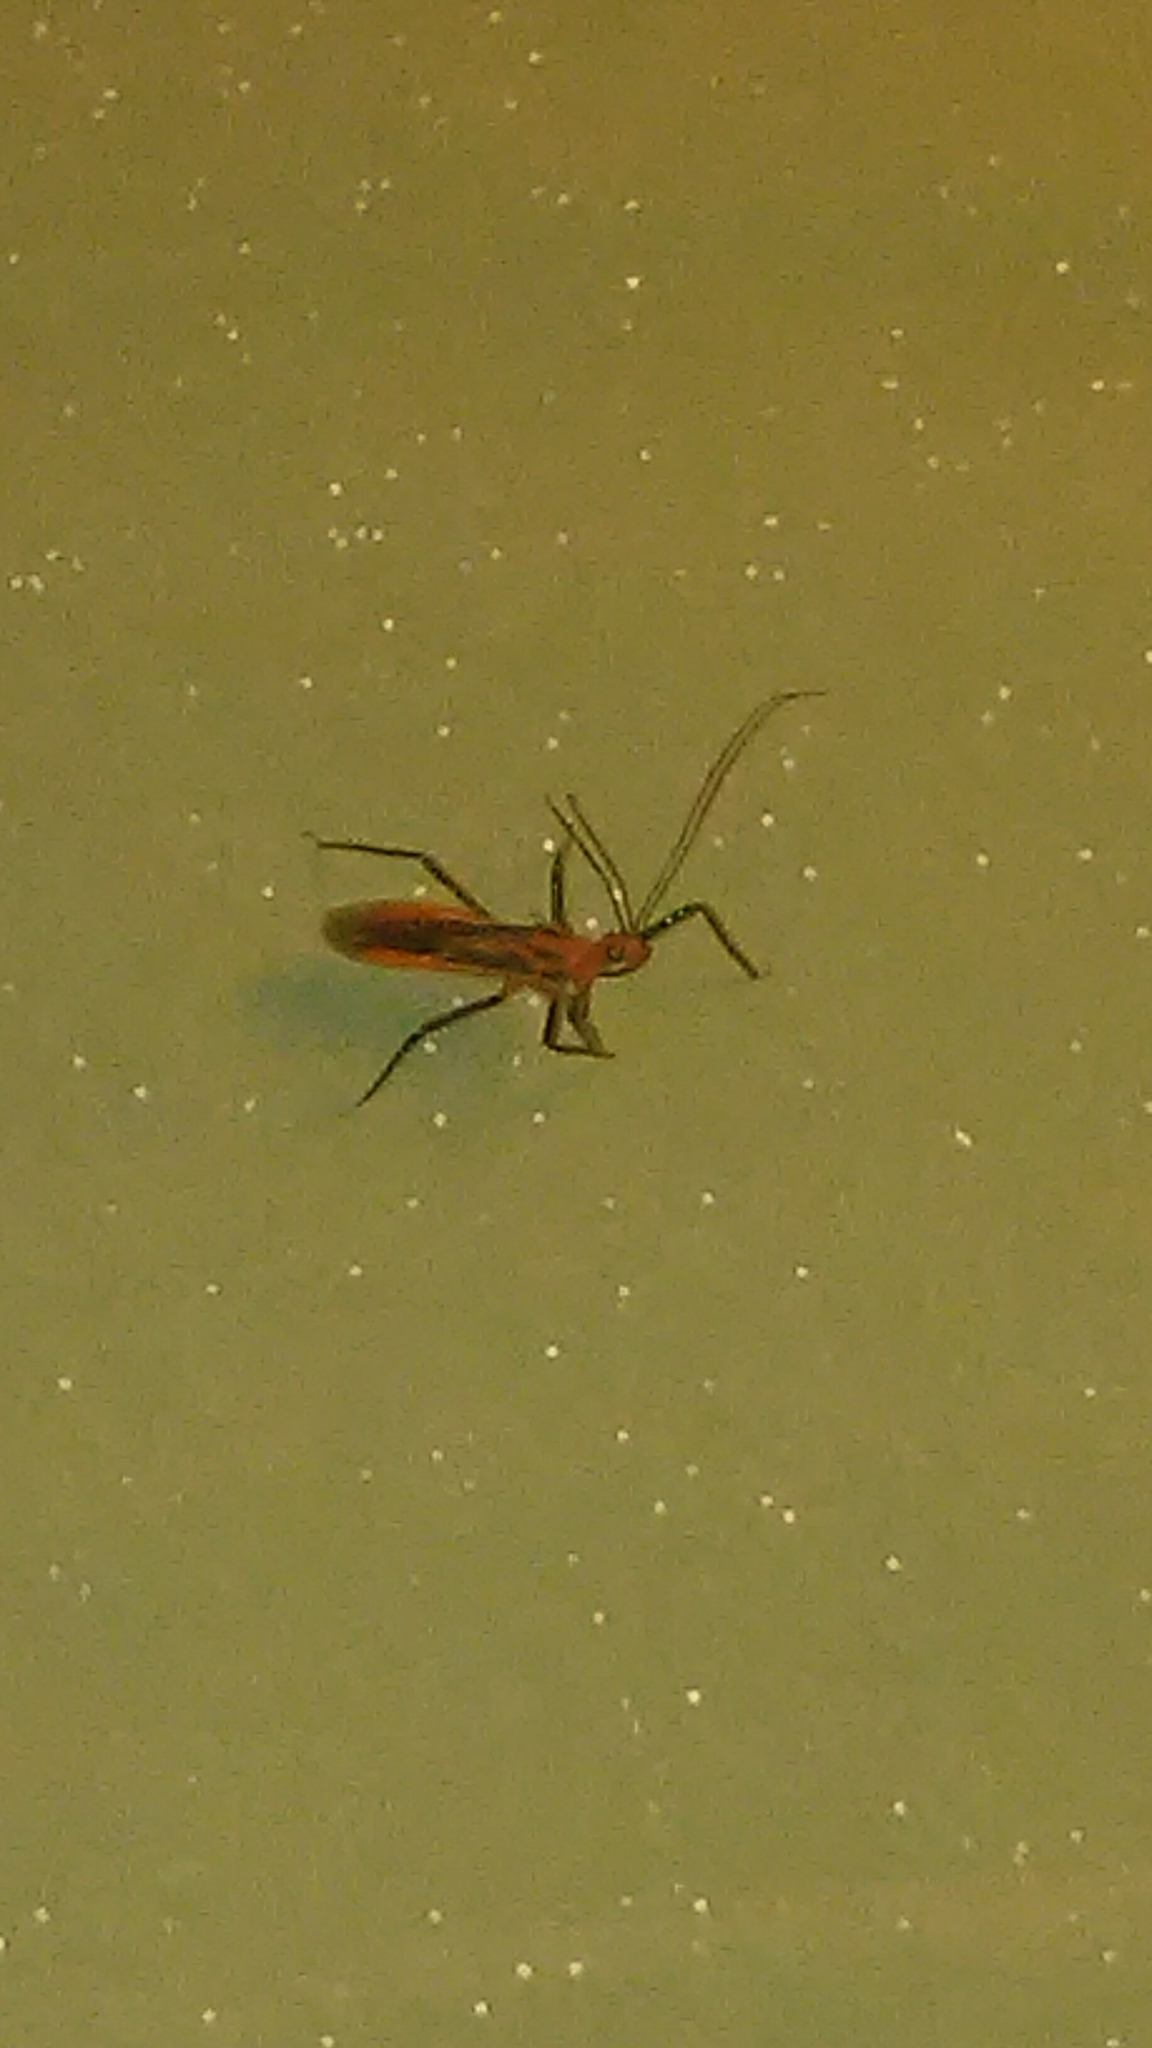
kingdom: Animalia
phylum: Arthropoda
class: Insecta
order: Hemiptera
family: Reduviidae
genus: Repipta
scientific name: Repipta taurus
